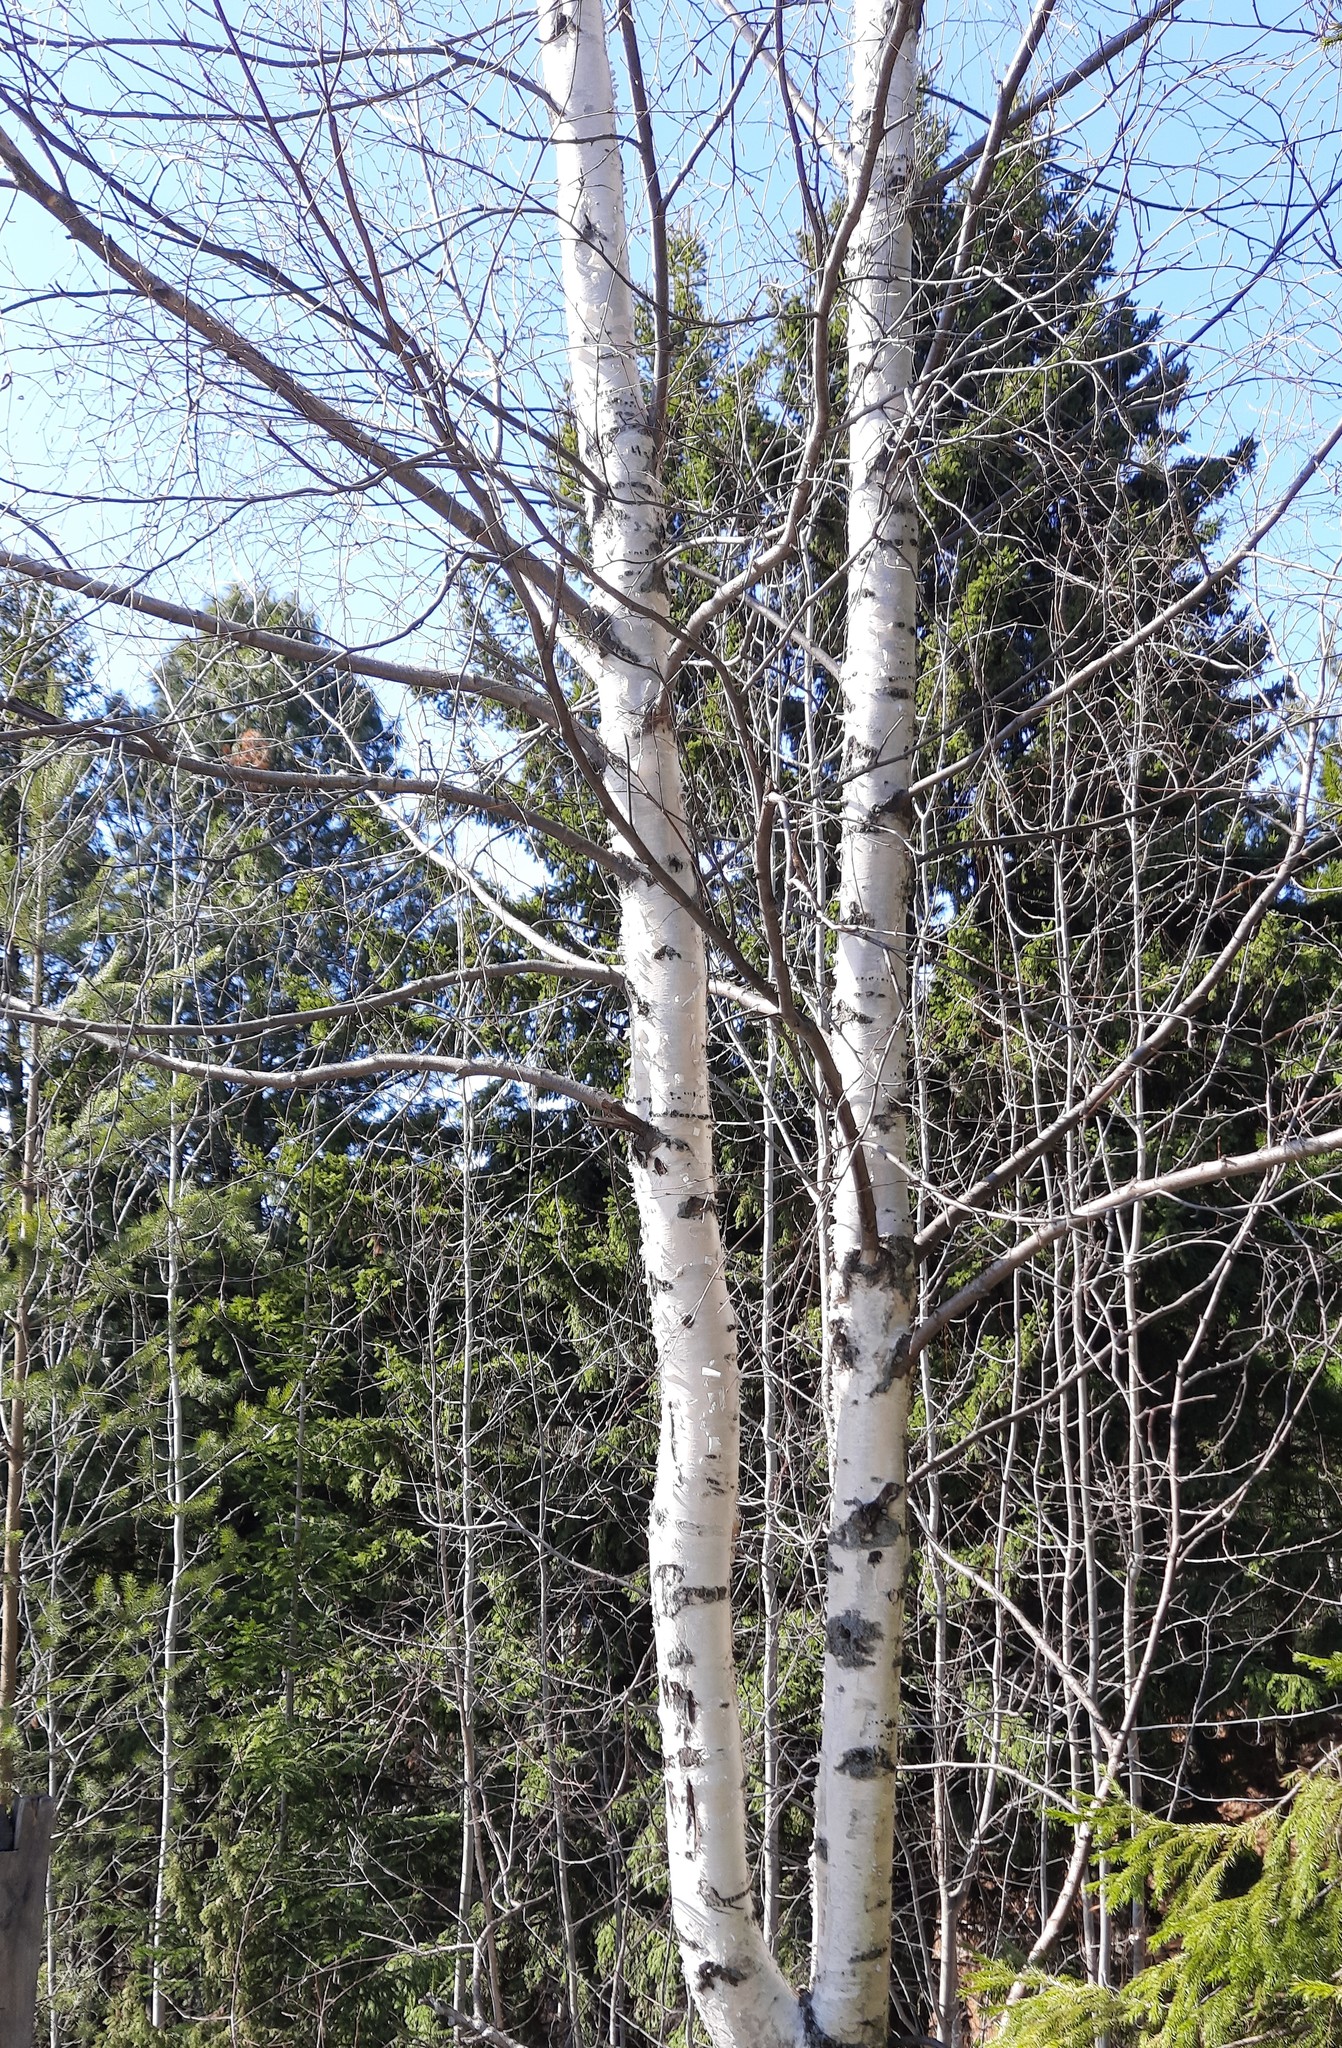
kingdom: Plantae
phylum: Tracheophyta
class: Magnoliopsida
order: Fagales
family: Betulaceae
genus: Betula
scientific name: Betula pubescens
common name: Downy birch
